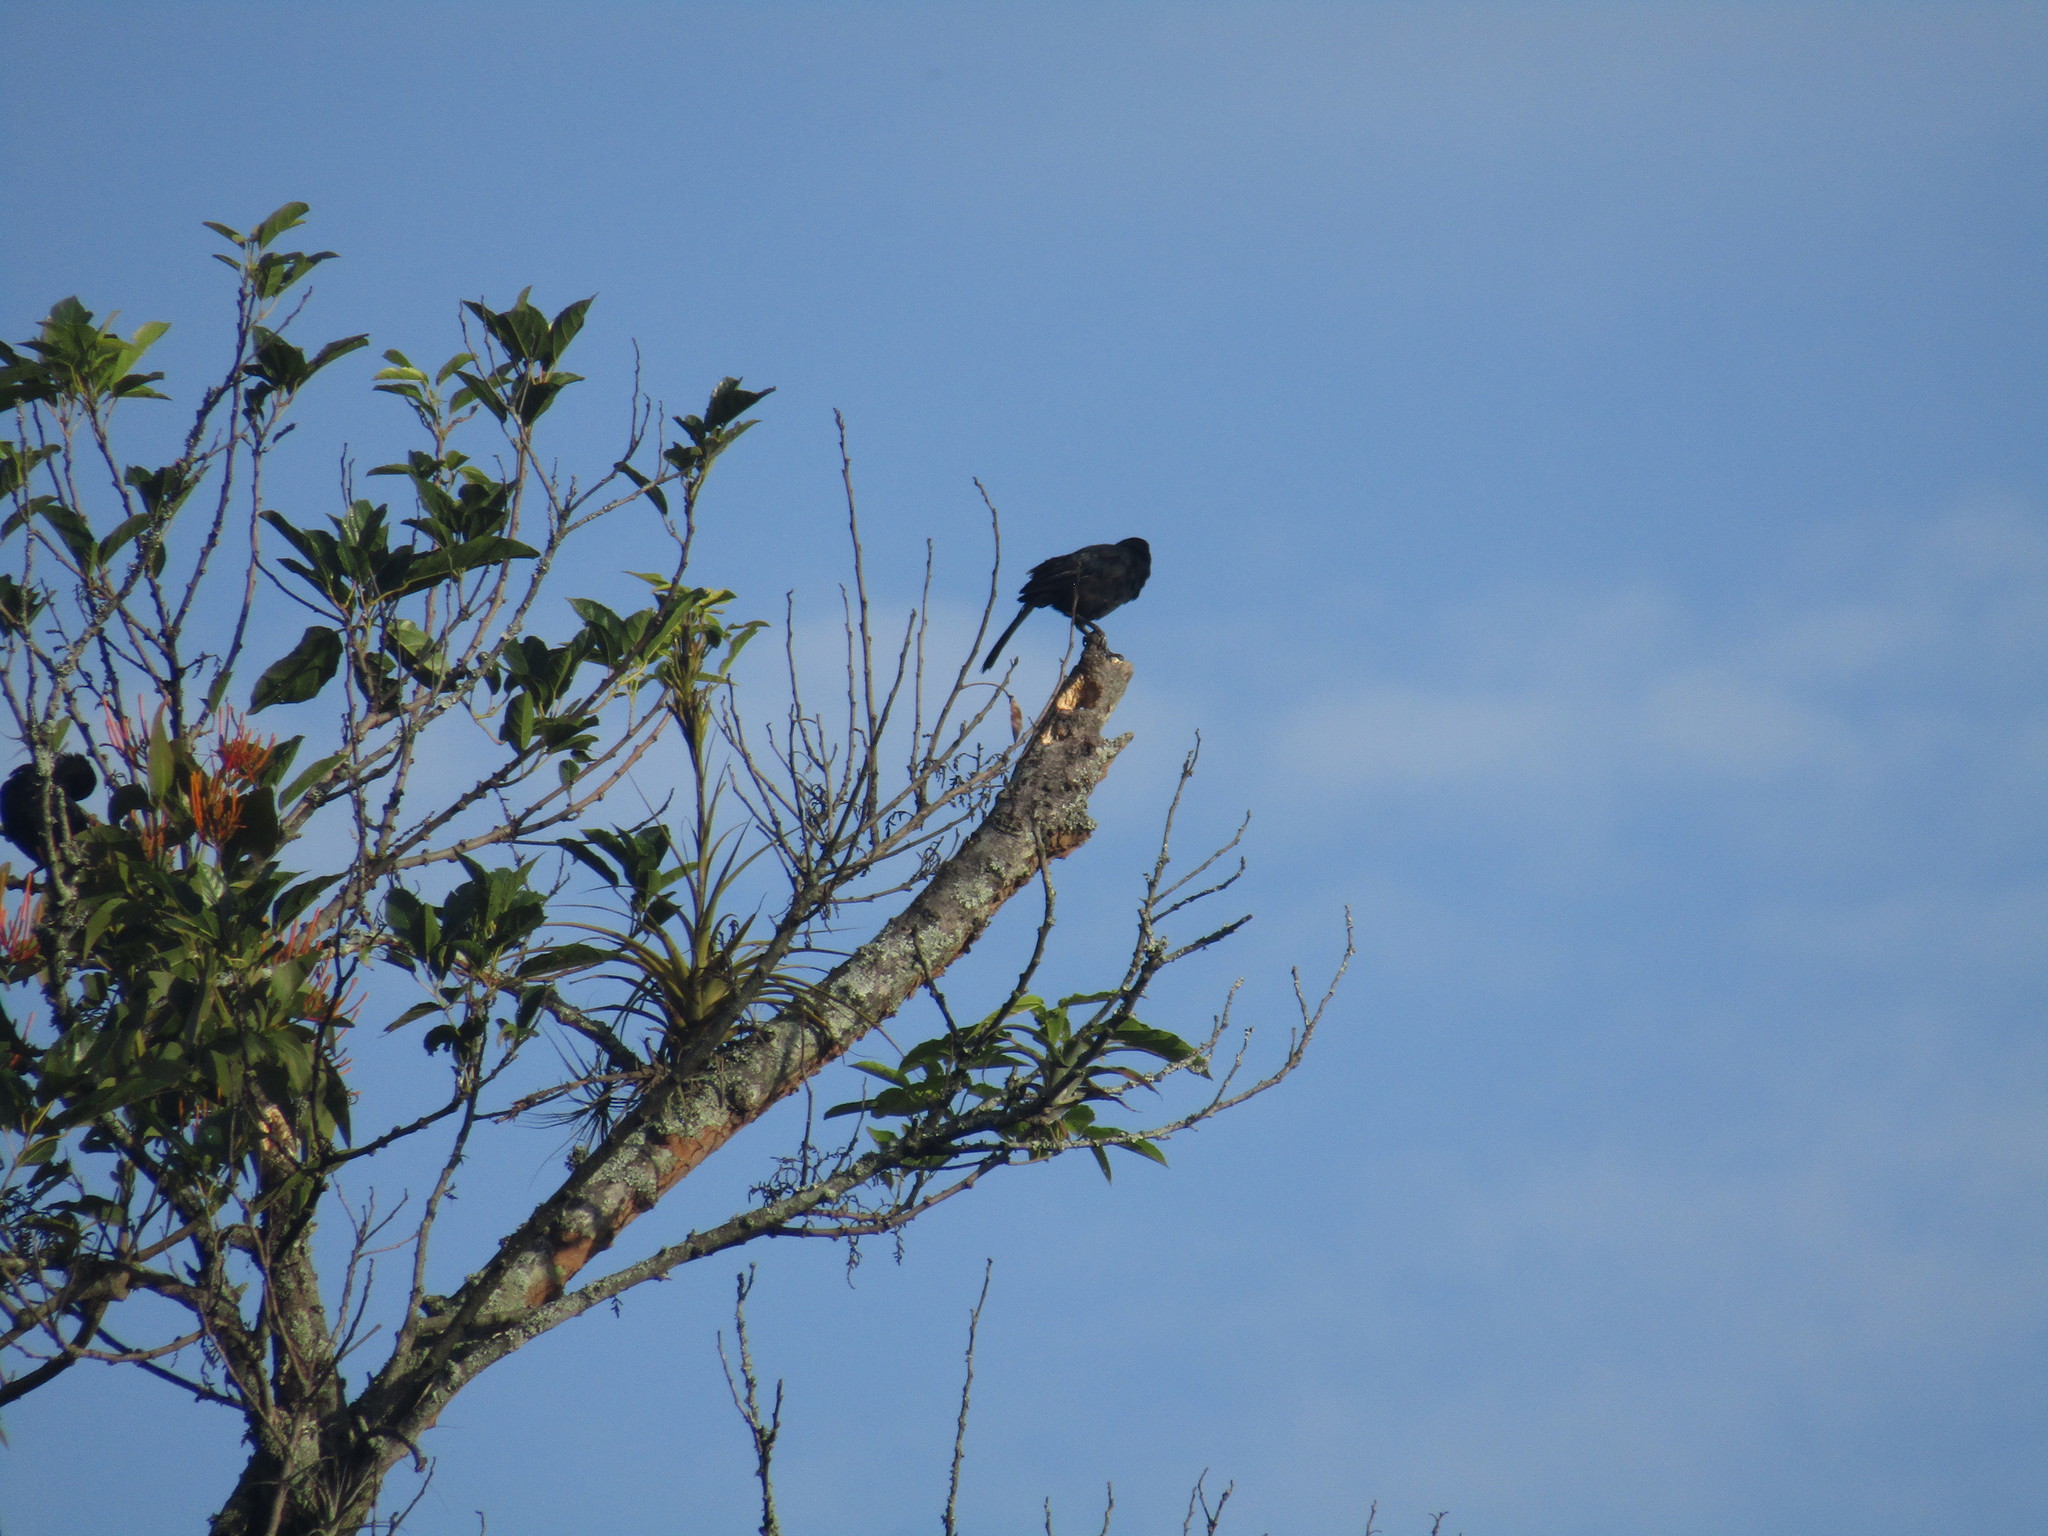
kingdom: Animalia
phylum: Chordata
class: Aves
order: Passeriformes
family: Icteridae
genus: Dives
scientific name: Dives dives
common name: Melodious blackbird
